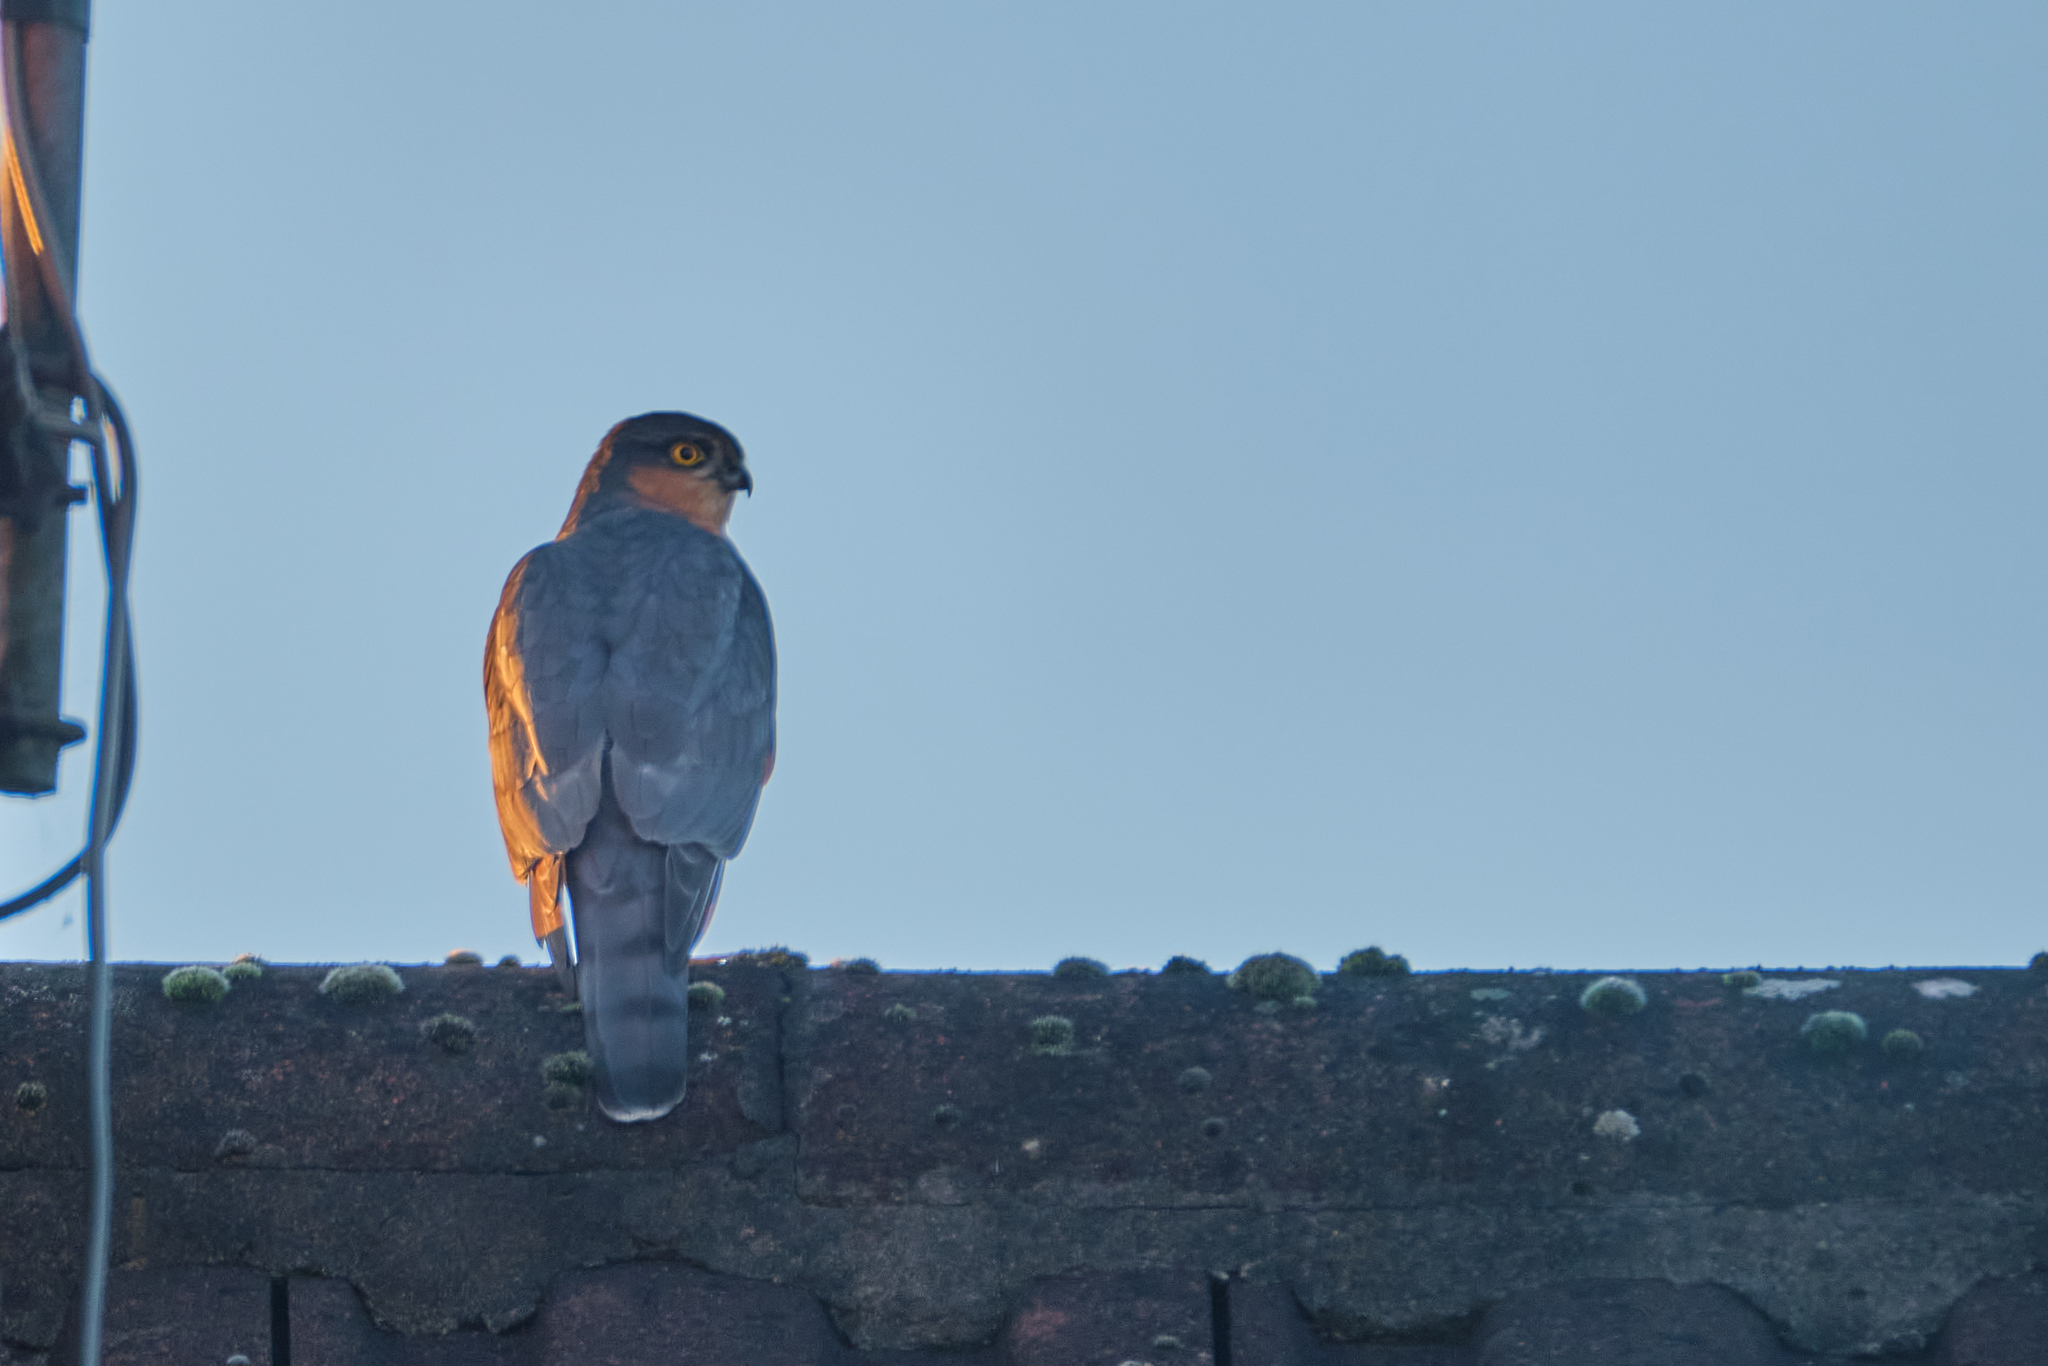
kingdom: Animalia
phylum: Chordata
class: Aves
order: Accipitriformes
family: Accipitridae
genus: Accipiter
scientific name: Accipiter nisus
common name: Eurasian sparrowhawk
